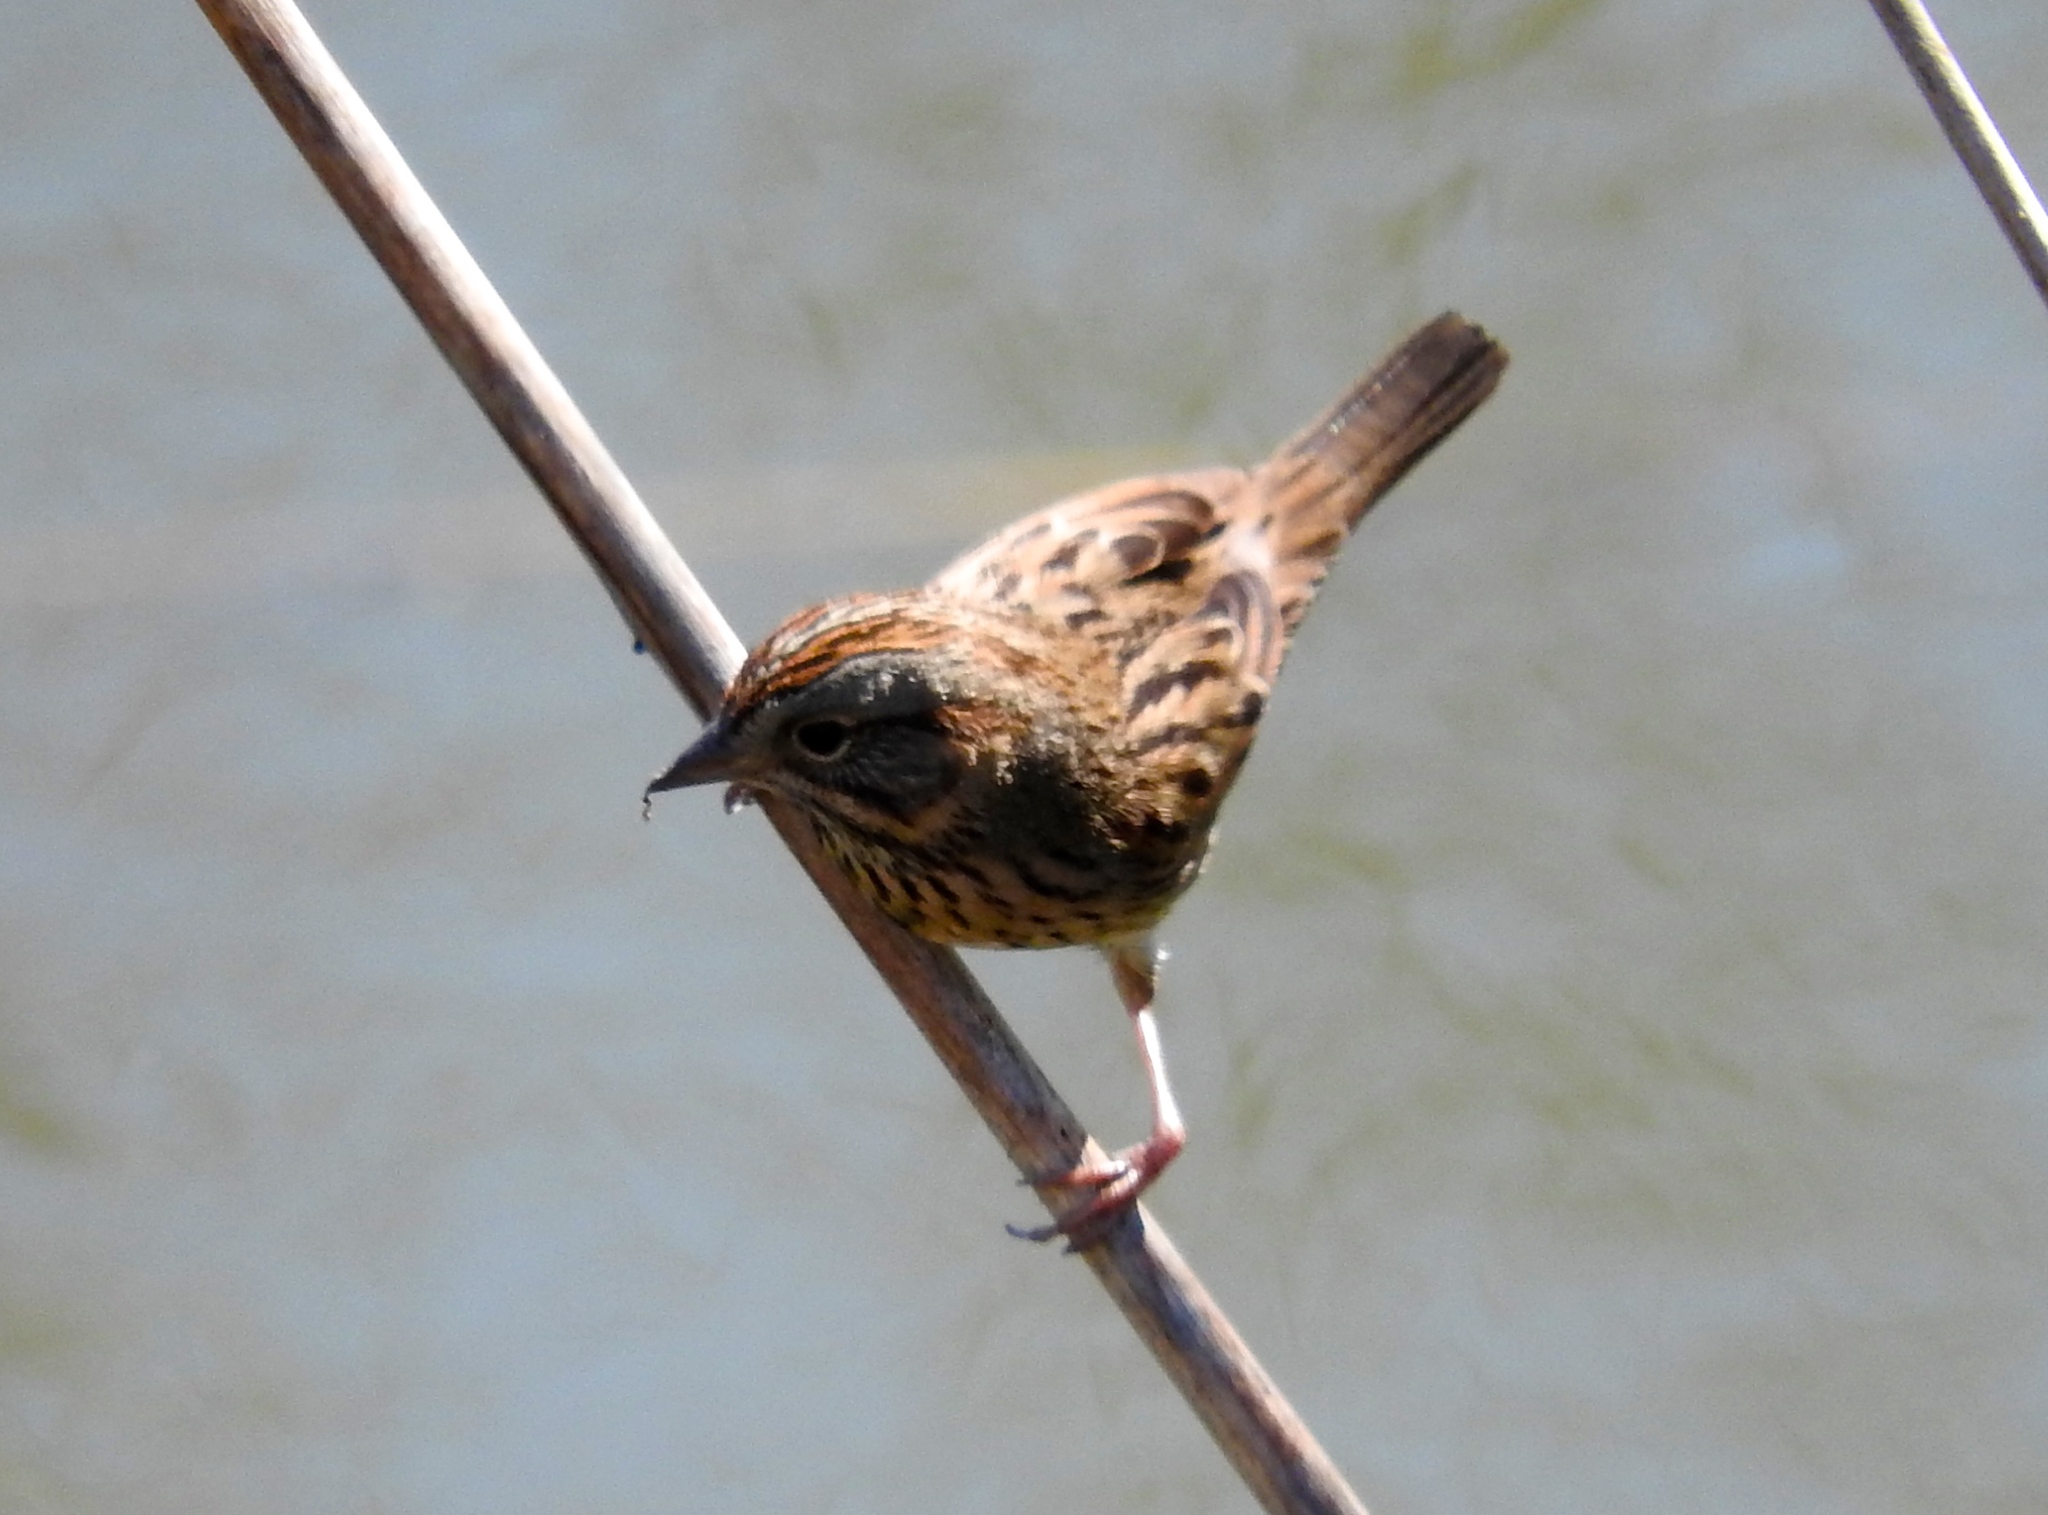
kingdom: Animalia
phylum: Chordata
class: Aves
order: Passeriformes
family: Passerellidae
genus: Melospiza
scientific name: Melospiza lincolnii
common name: Lincoln's sparrow
